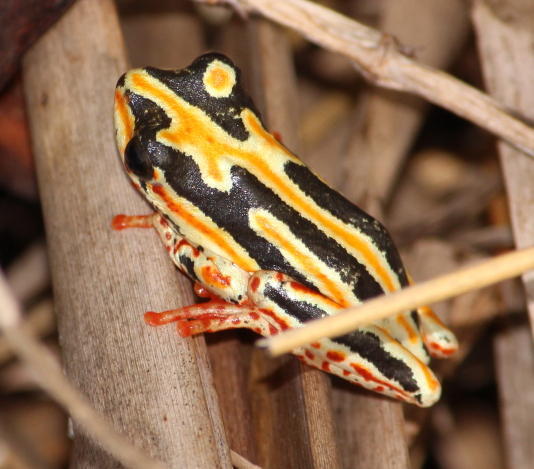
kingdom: Animalia
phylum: Chordata
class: Amphibia
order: Anura
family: Hyperoliidae
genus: Hyperolius
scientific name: Hyperolius marmoratus
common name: Painted reed frog
